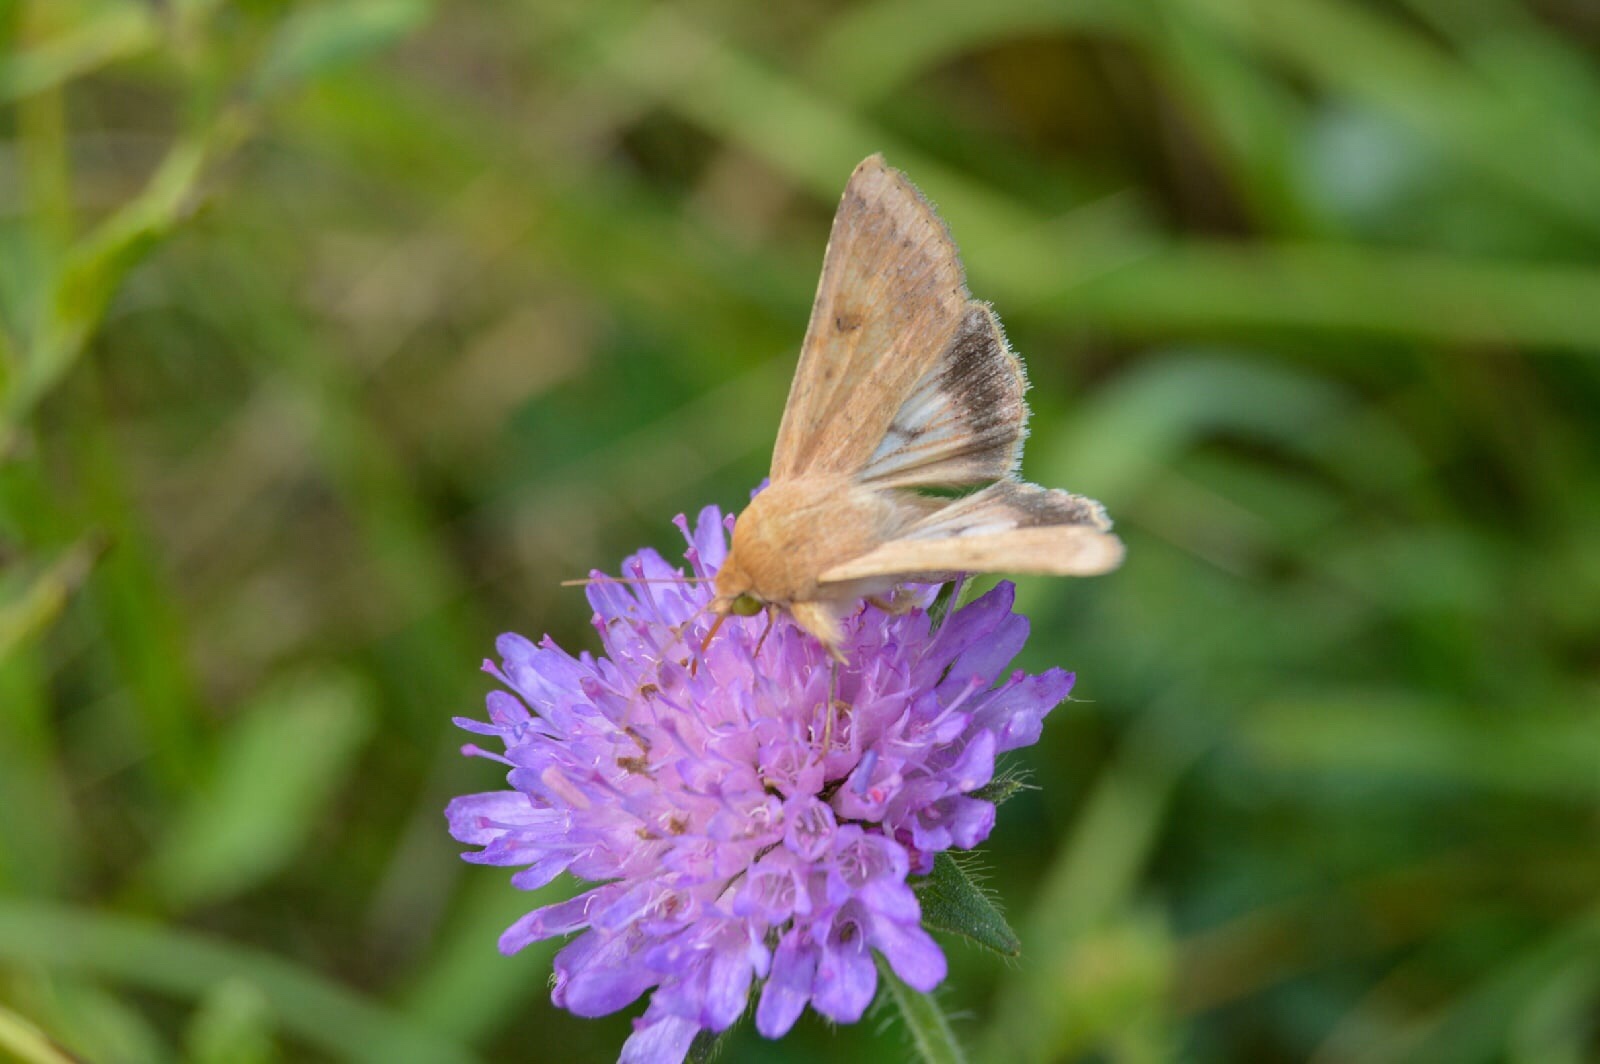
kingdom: Animalia
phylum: Arthropoda
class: Insecta
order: Lepidoptera
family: Noctuidae
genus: Helicoverpa
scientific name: Helicoverpa armigera
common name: Cotton bollworm
